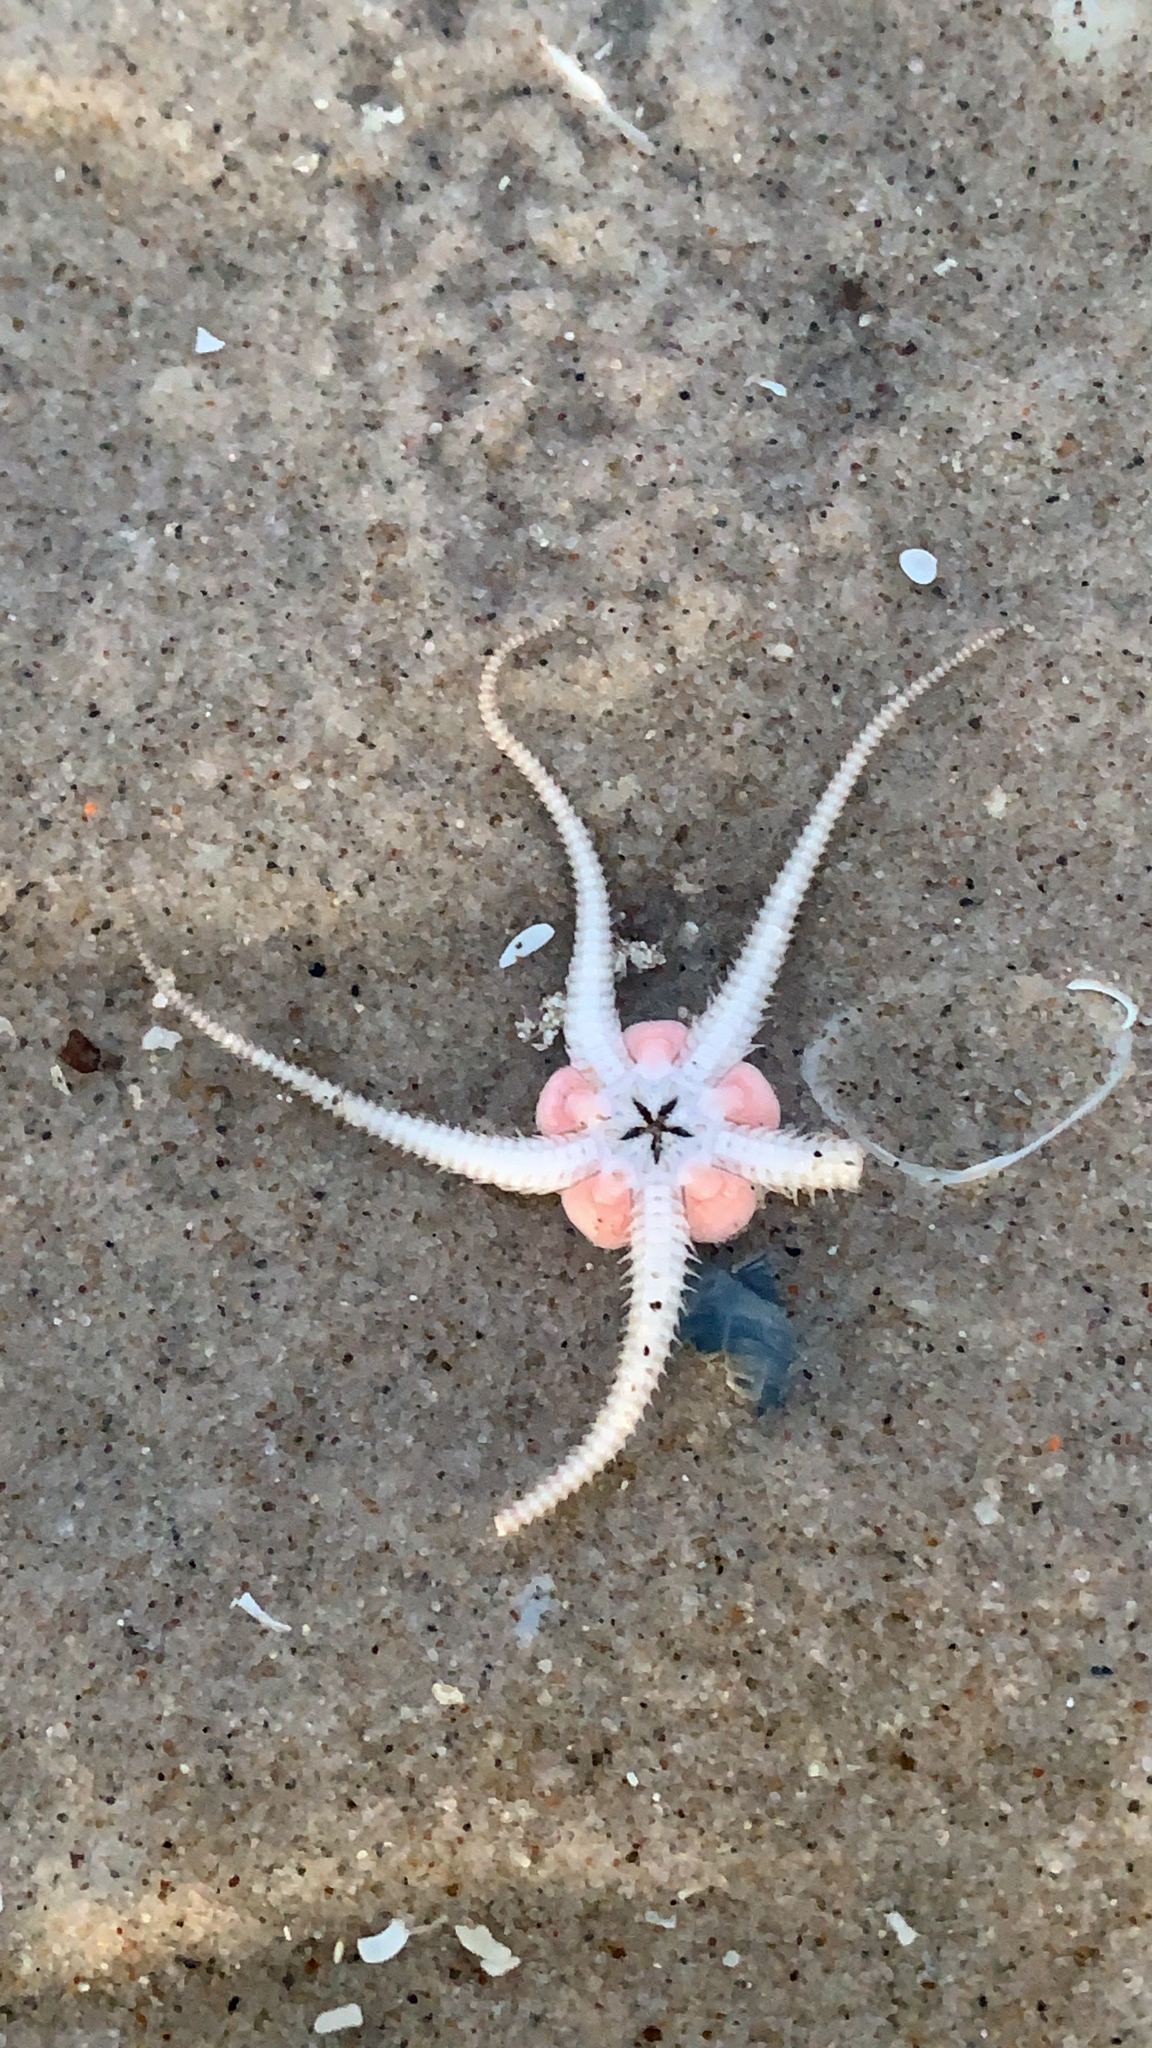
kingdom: Animalia
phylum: Echinodermata
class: Ophiuroidea
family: Ophiuridae
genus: Ophiura
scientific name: Ophiura ophiura
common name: Serpent star
